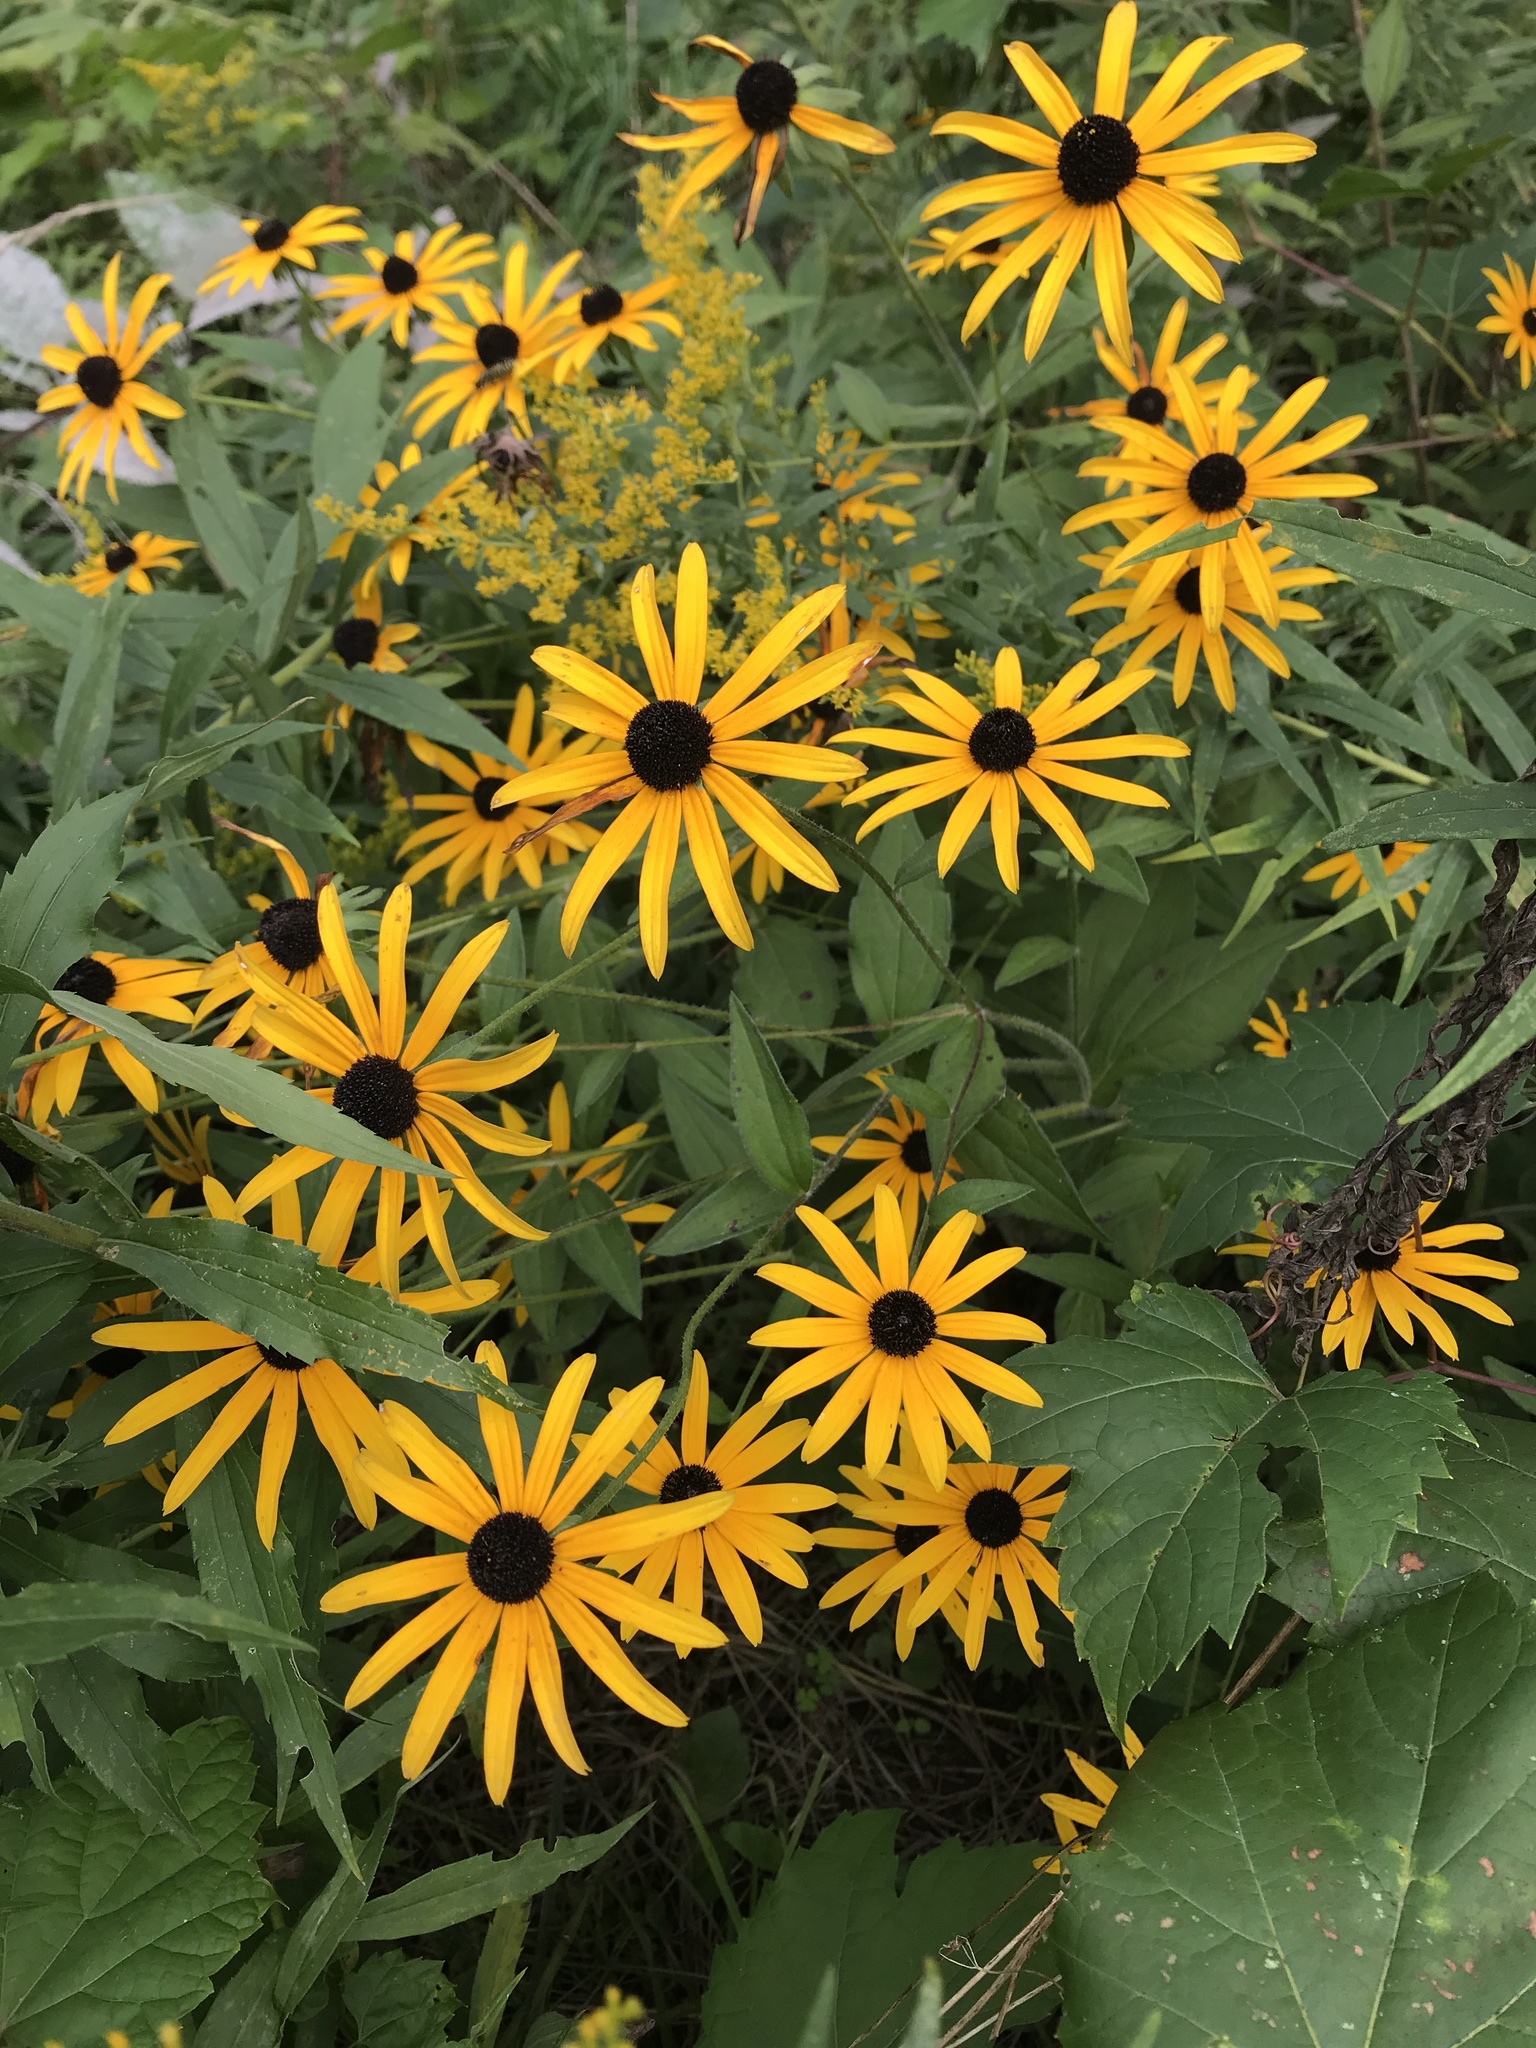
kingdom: Plantae
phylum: Tracheophyta
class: Magnoliopsida
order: Asterales
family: Asteraceae
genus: Rudbeckia
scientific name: Rudbeckia hirta
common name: Black-eyed-susan
